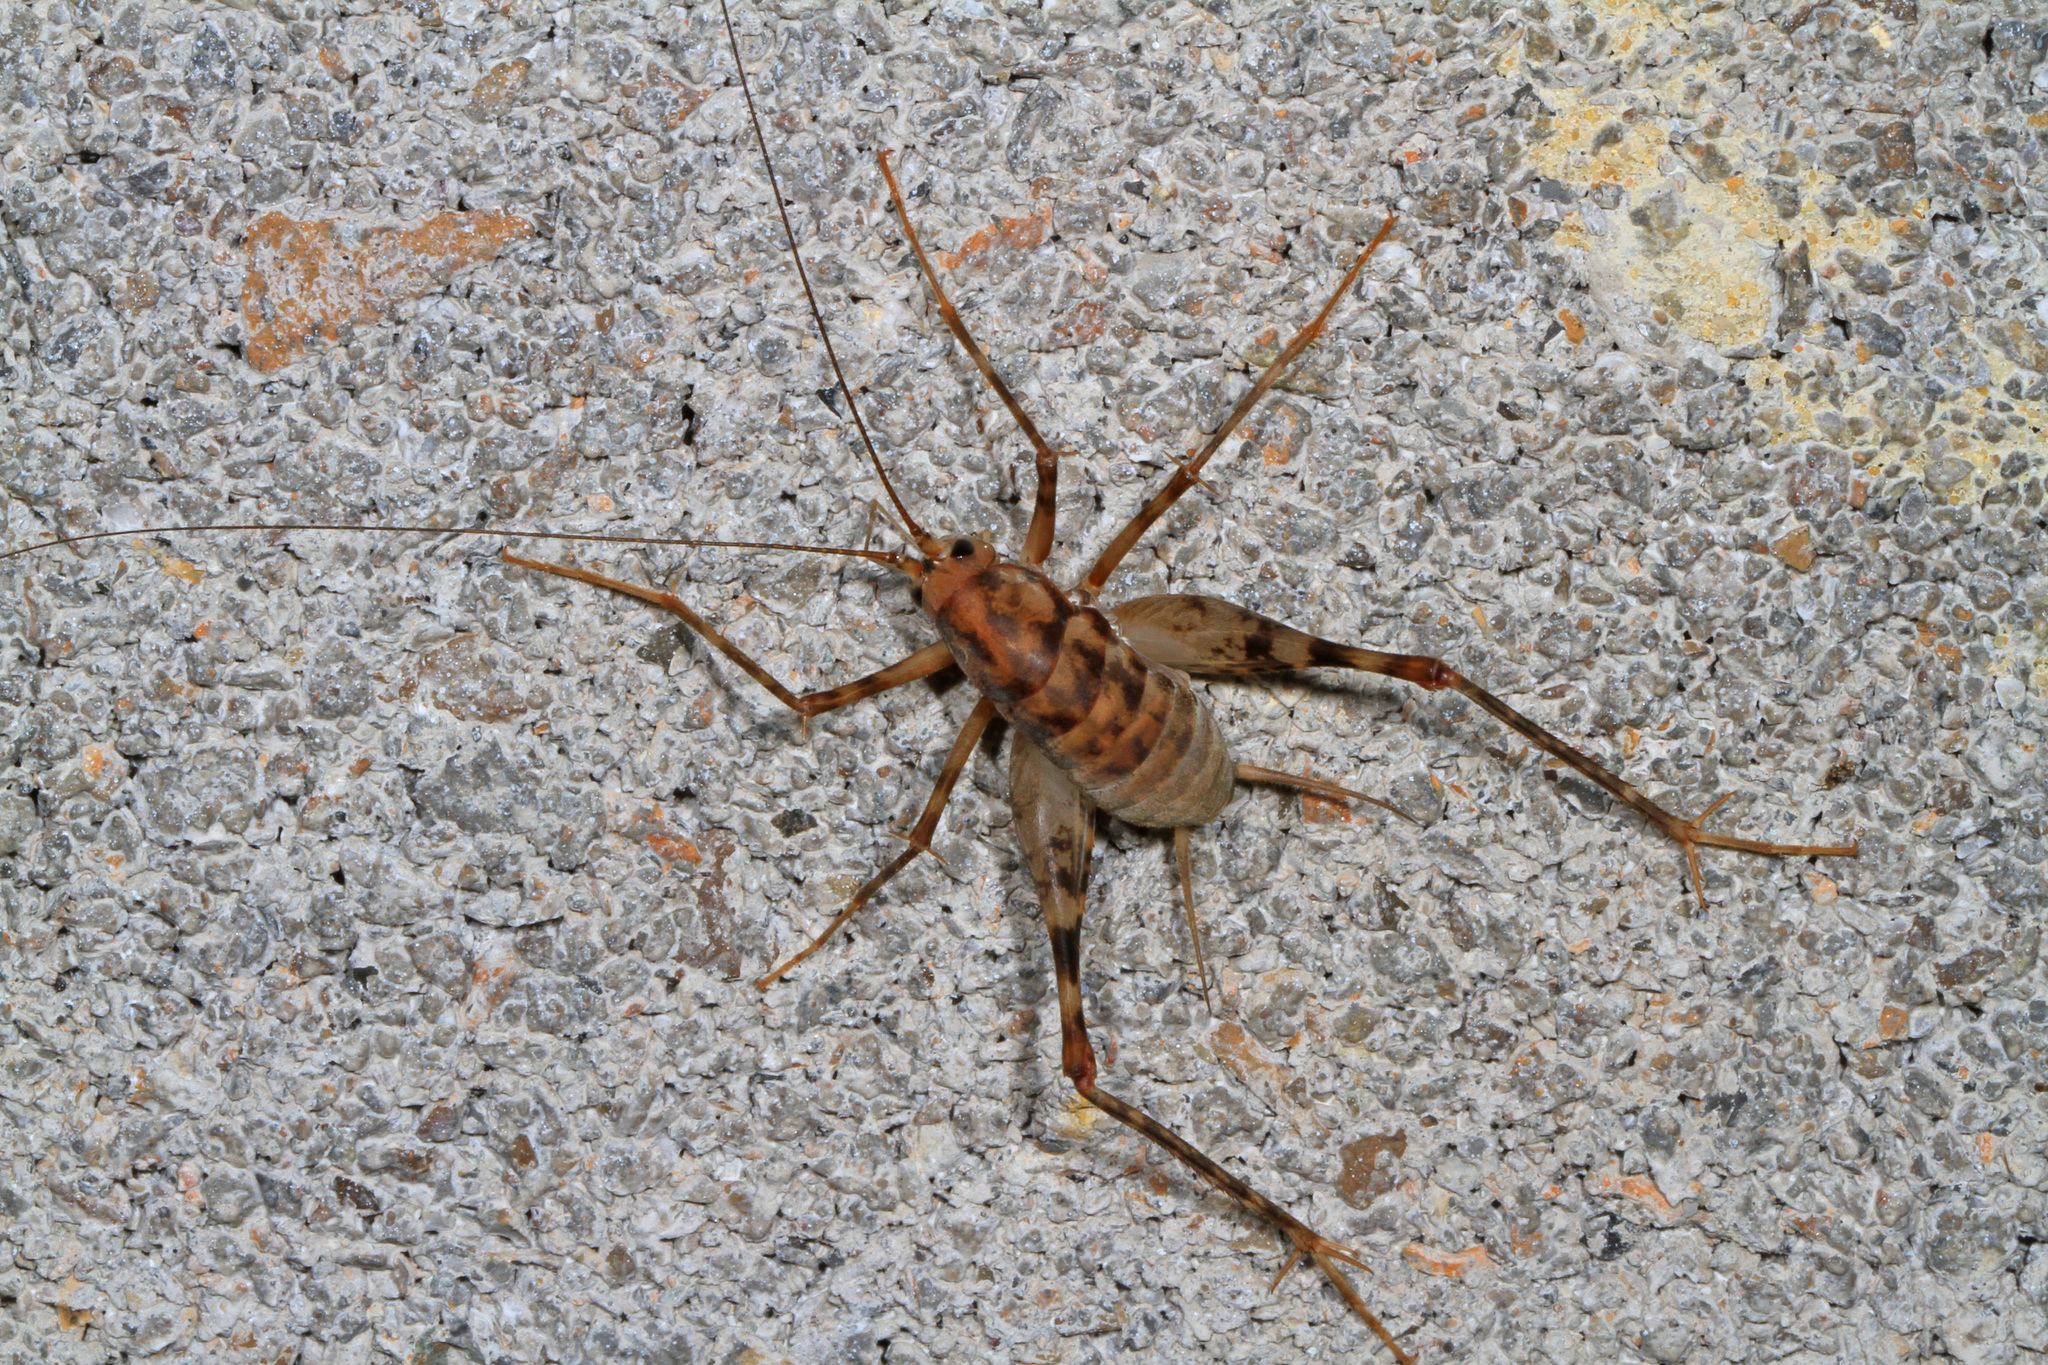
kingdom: Animalia
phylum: Arthropoda
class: Insecta
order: Orthoptera
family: Rhaphidophoridae
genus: Tachycines
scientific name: Tachycines asynamorus
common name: Greenhouse camel cricket
